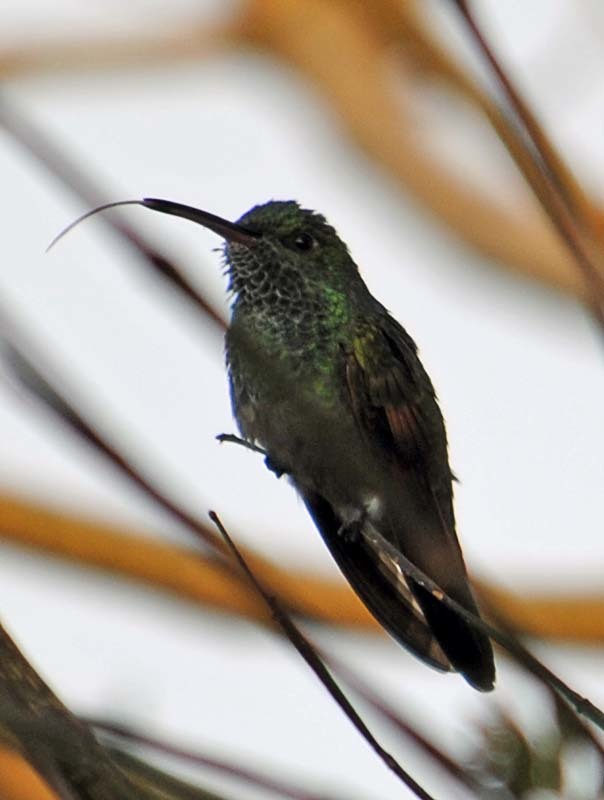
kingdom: Animalia
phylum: Chordata
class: Aves
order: Apodiformes
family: Trochilidae
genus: Cynanthus
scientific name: Cynanthus latirostris
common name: Broad-billed hummingbird
